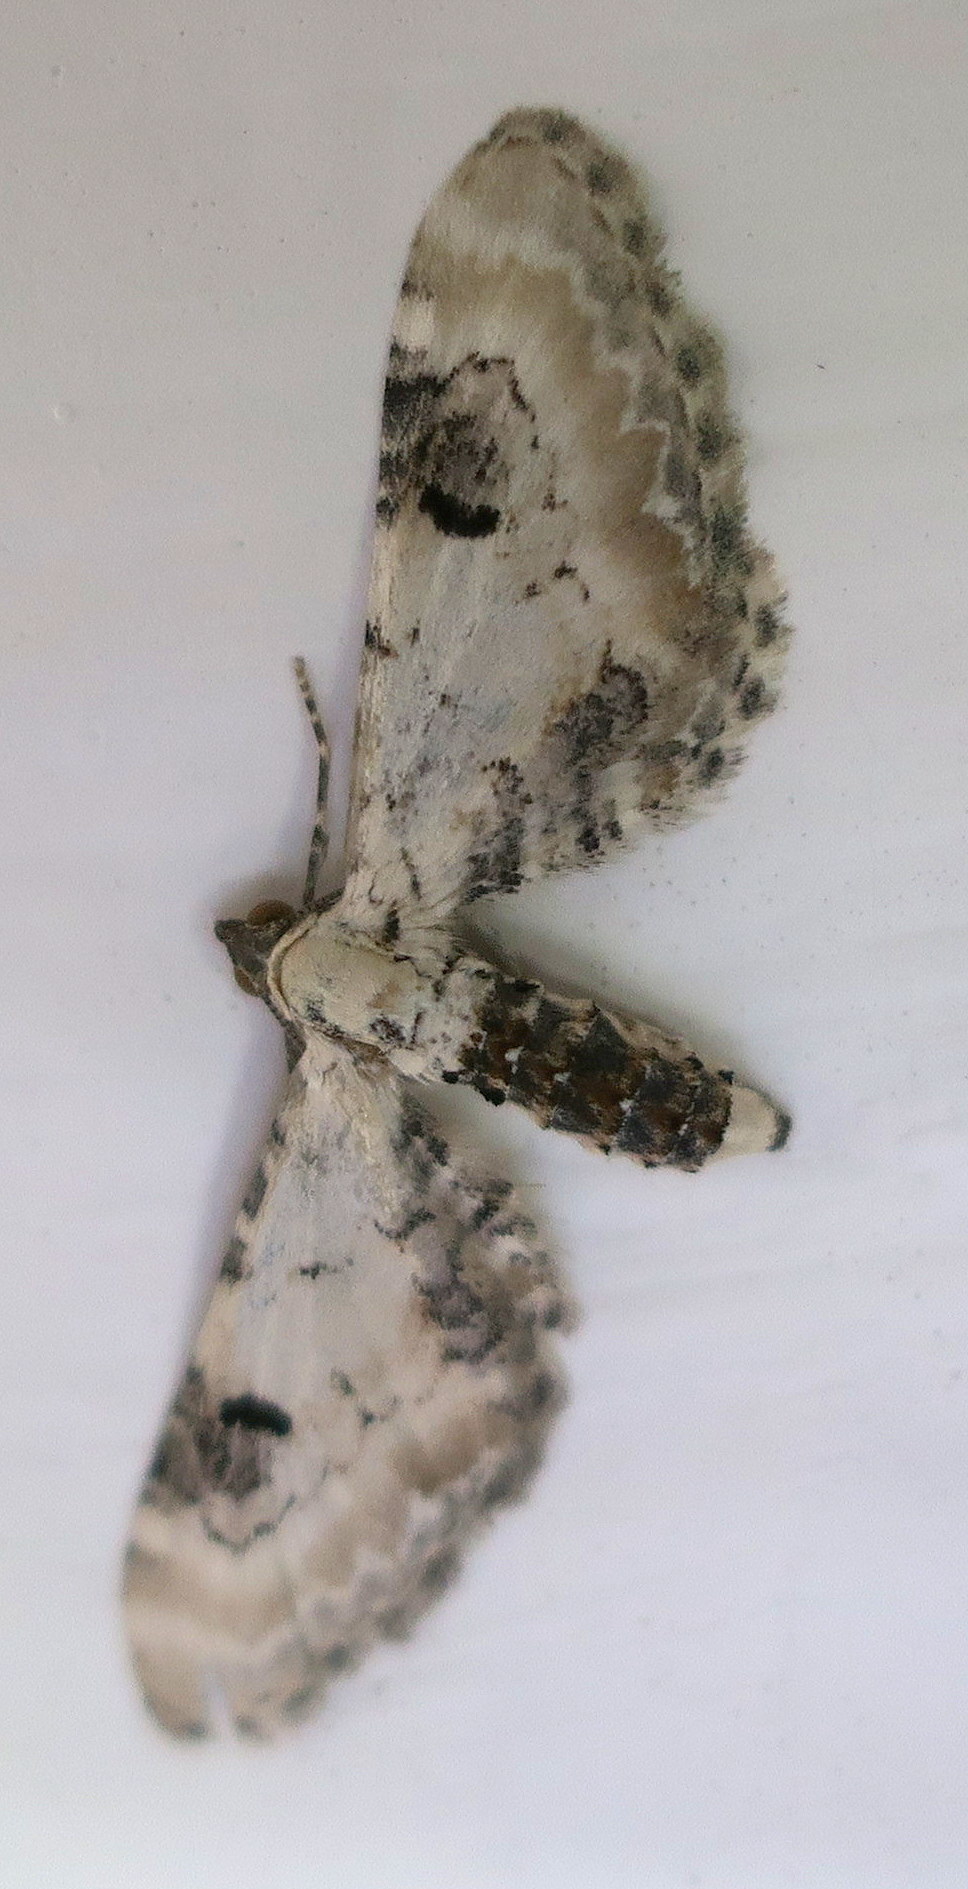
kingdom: Animalia
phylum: Arthropoda
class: Insecta
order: Lepidoptera
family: Geometridae
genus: Eupithecia
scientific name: Eupithecia centaureata
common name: Lime-speck pug
